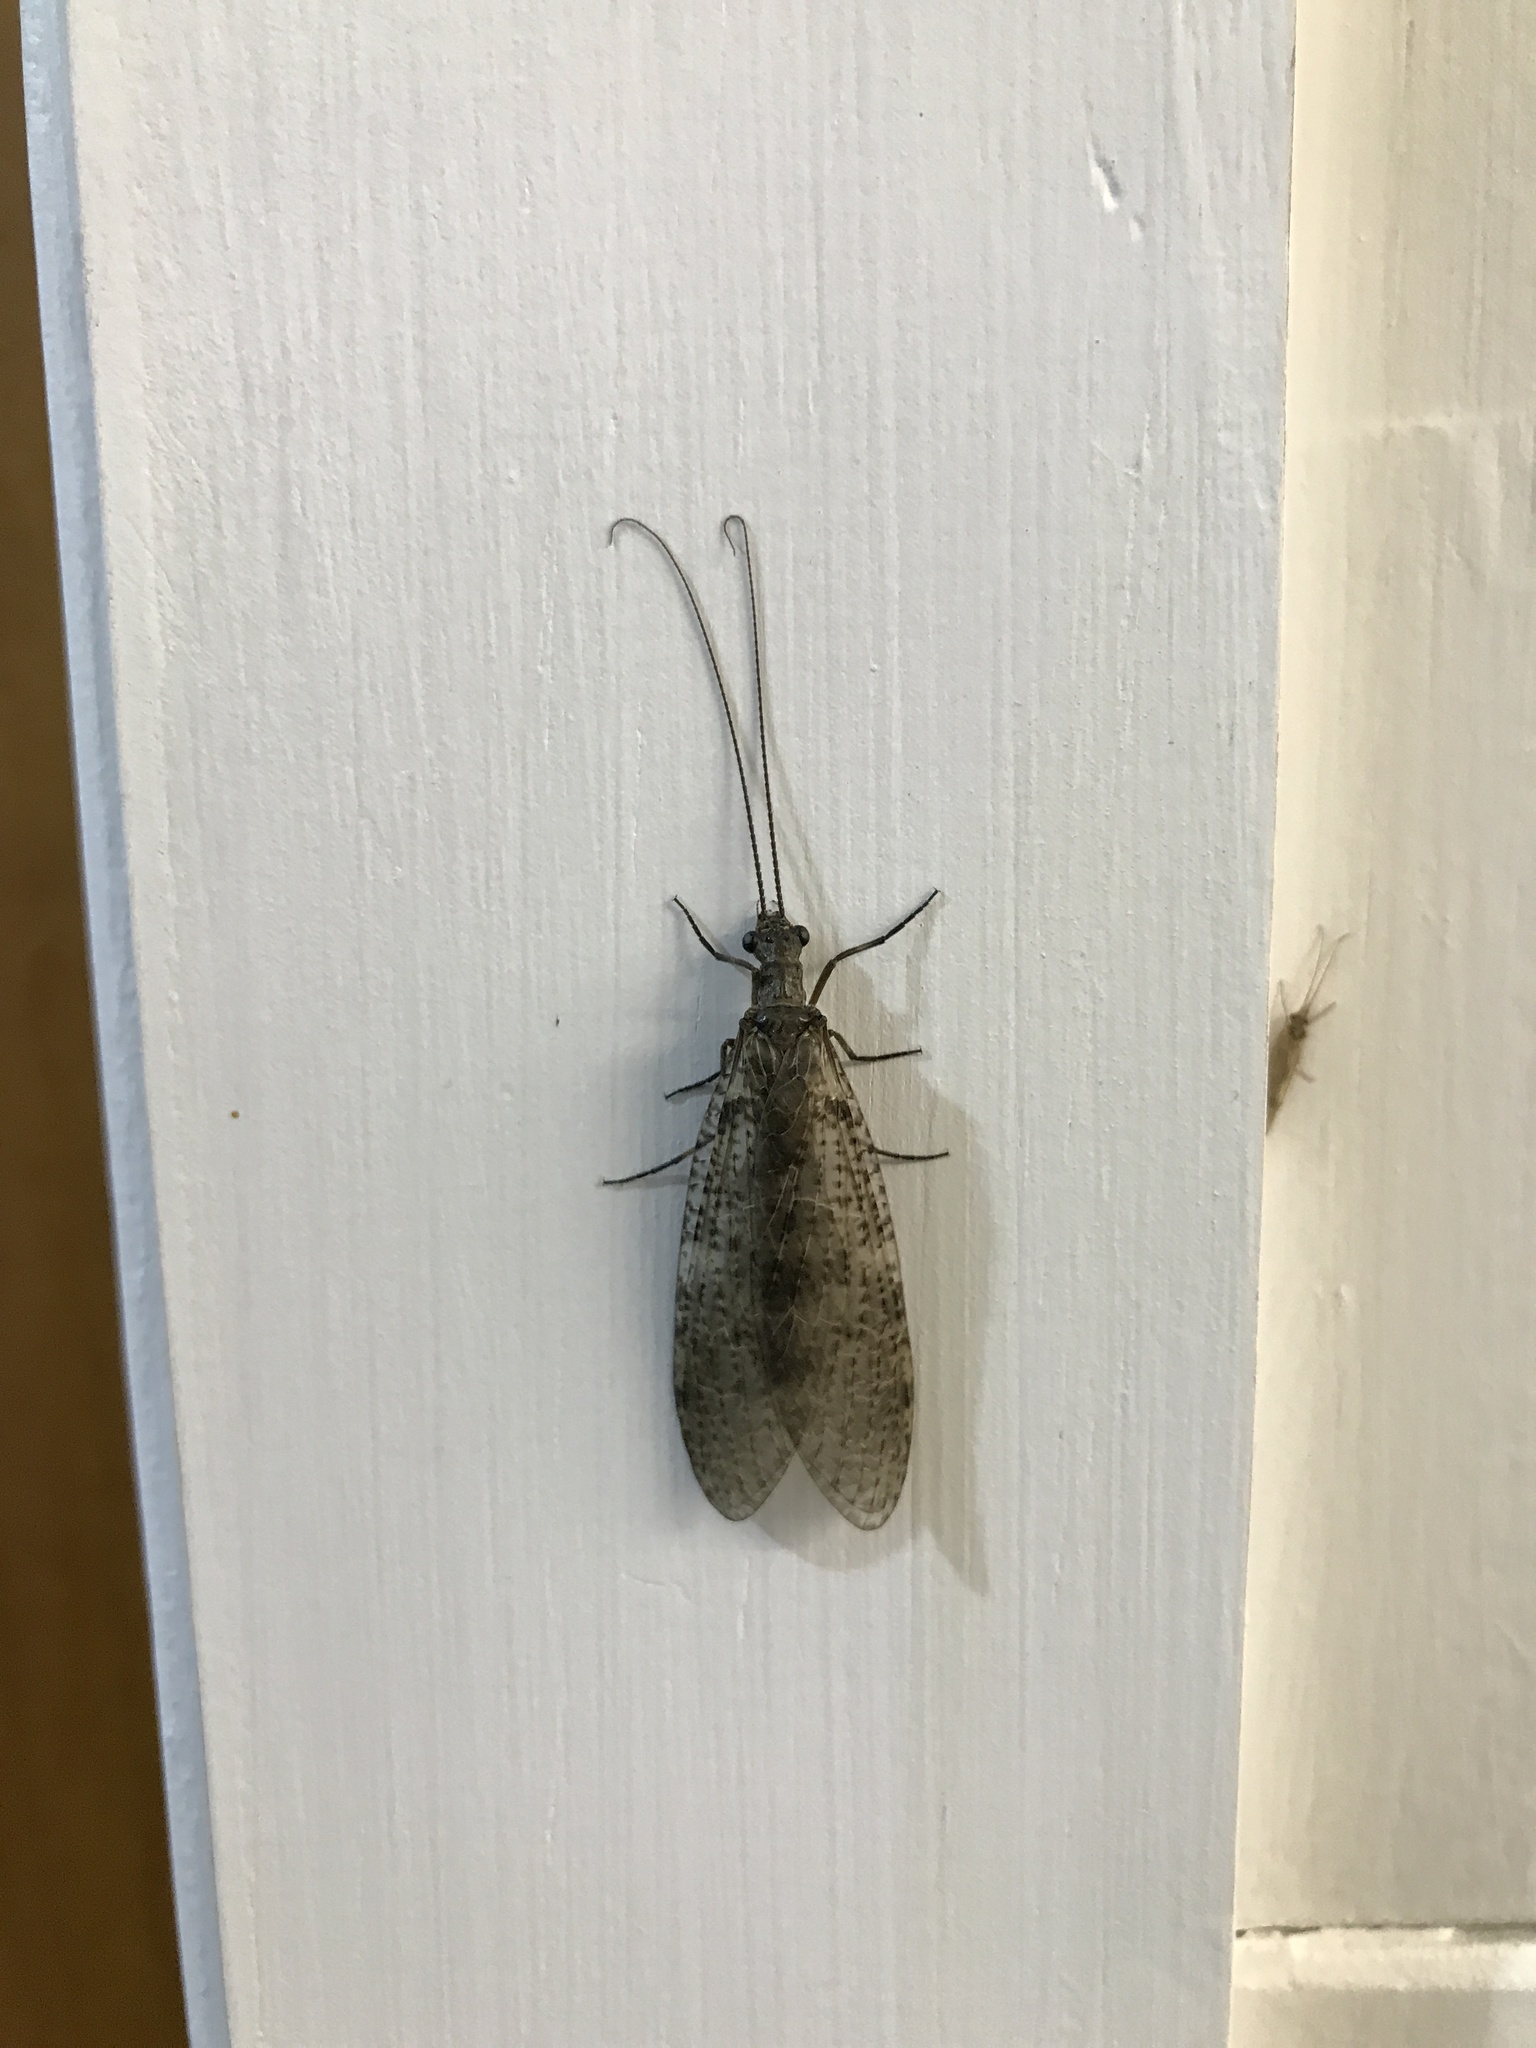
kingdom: Animalia
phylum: Arthropoda
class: Insecta
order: Megaloptera
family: Corydalidae
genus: Archichauliodes
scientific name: Archichauliodes diversus
